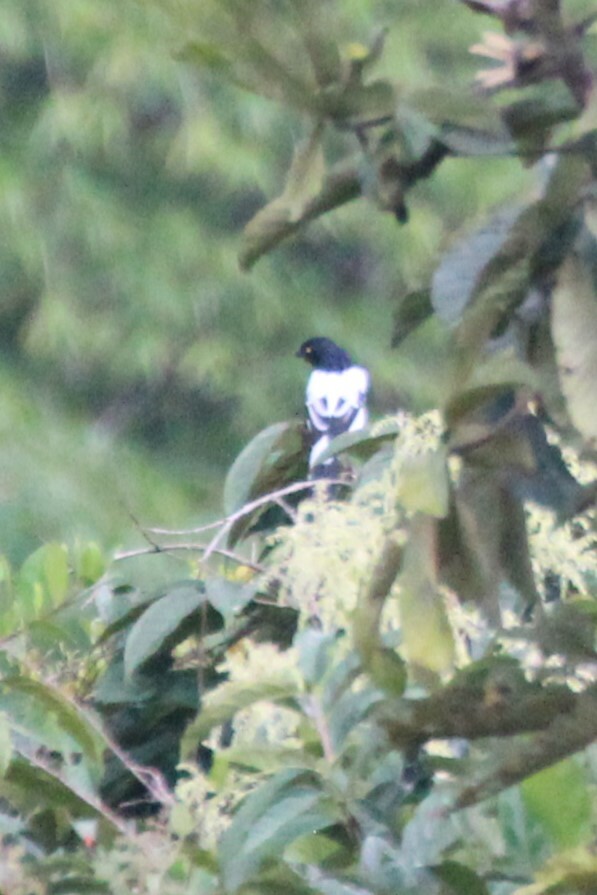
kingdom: Animalia
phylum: Chordata
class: Aves
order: Passeriformes
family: Thraupidae
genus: Cissopis
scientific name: Cissopis leverianus
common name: Magpie tanager
